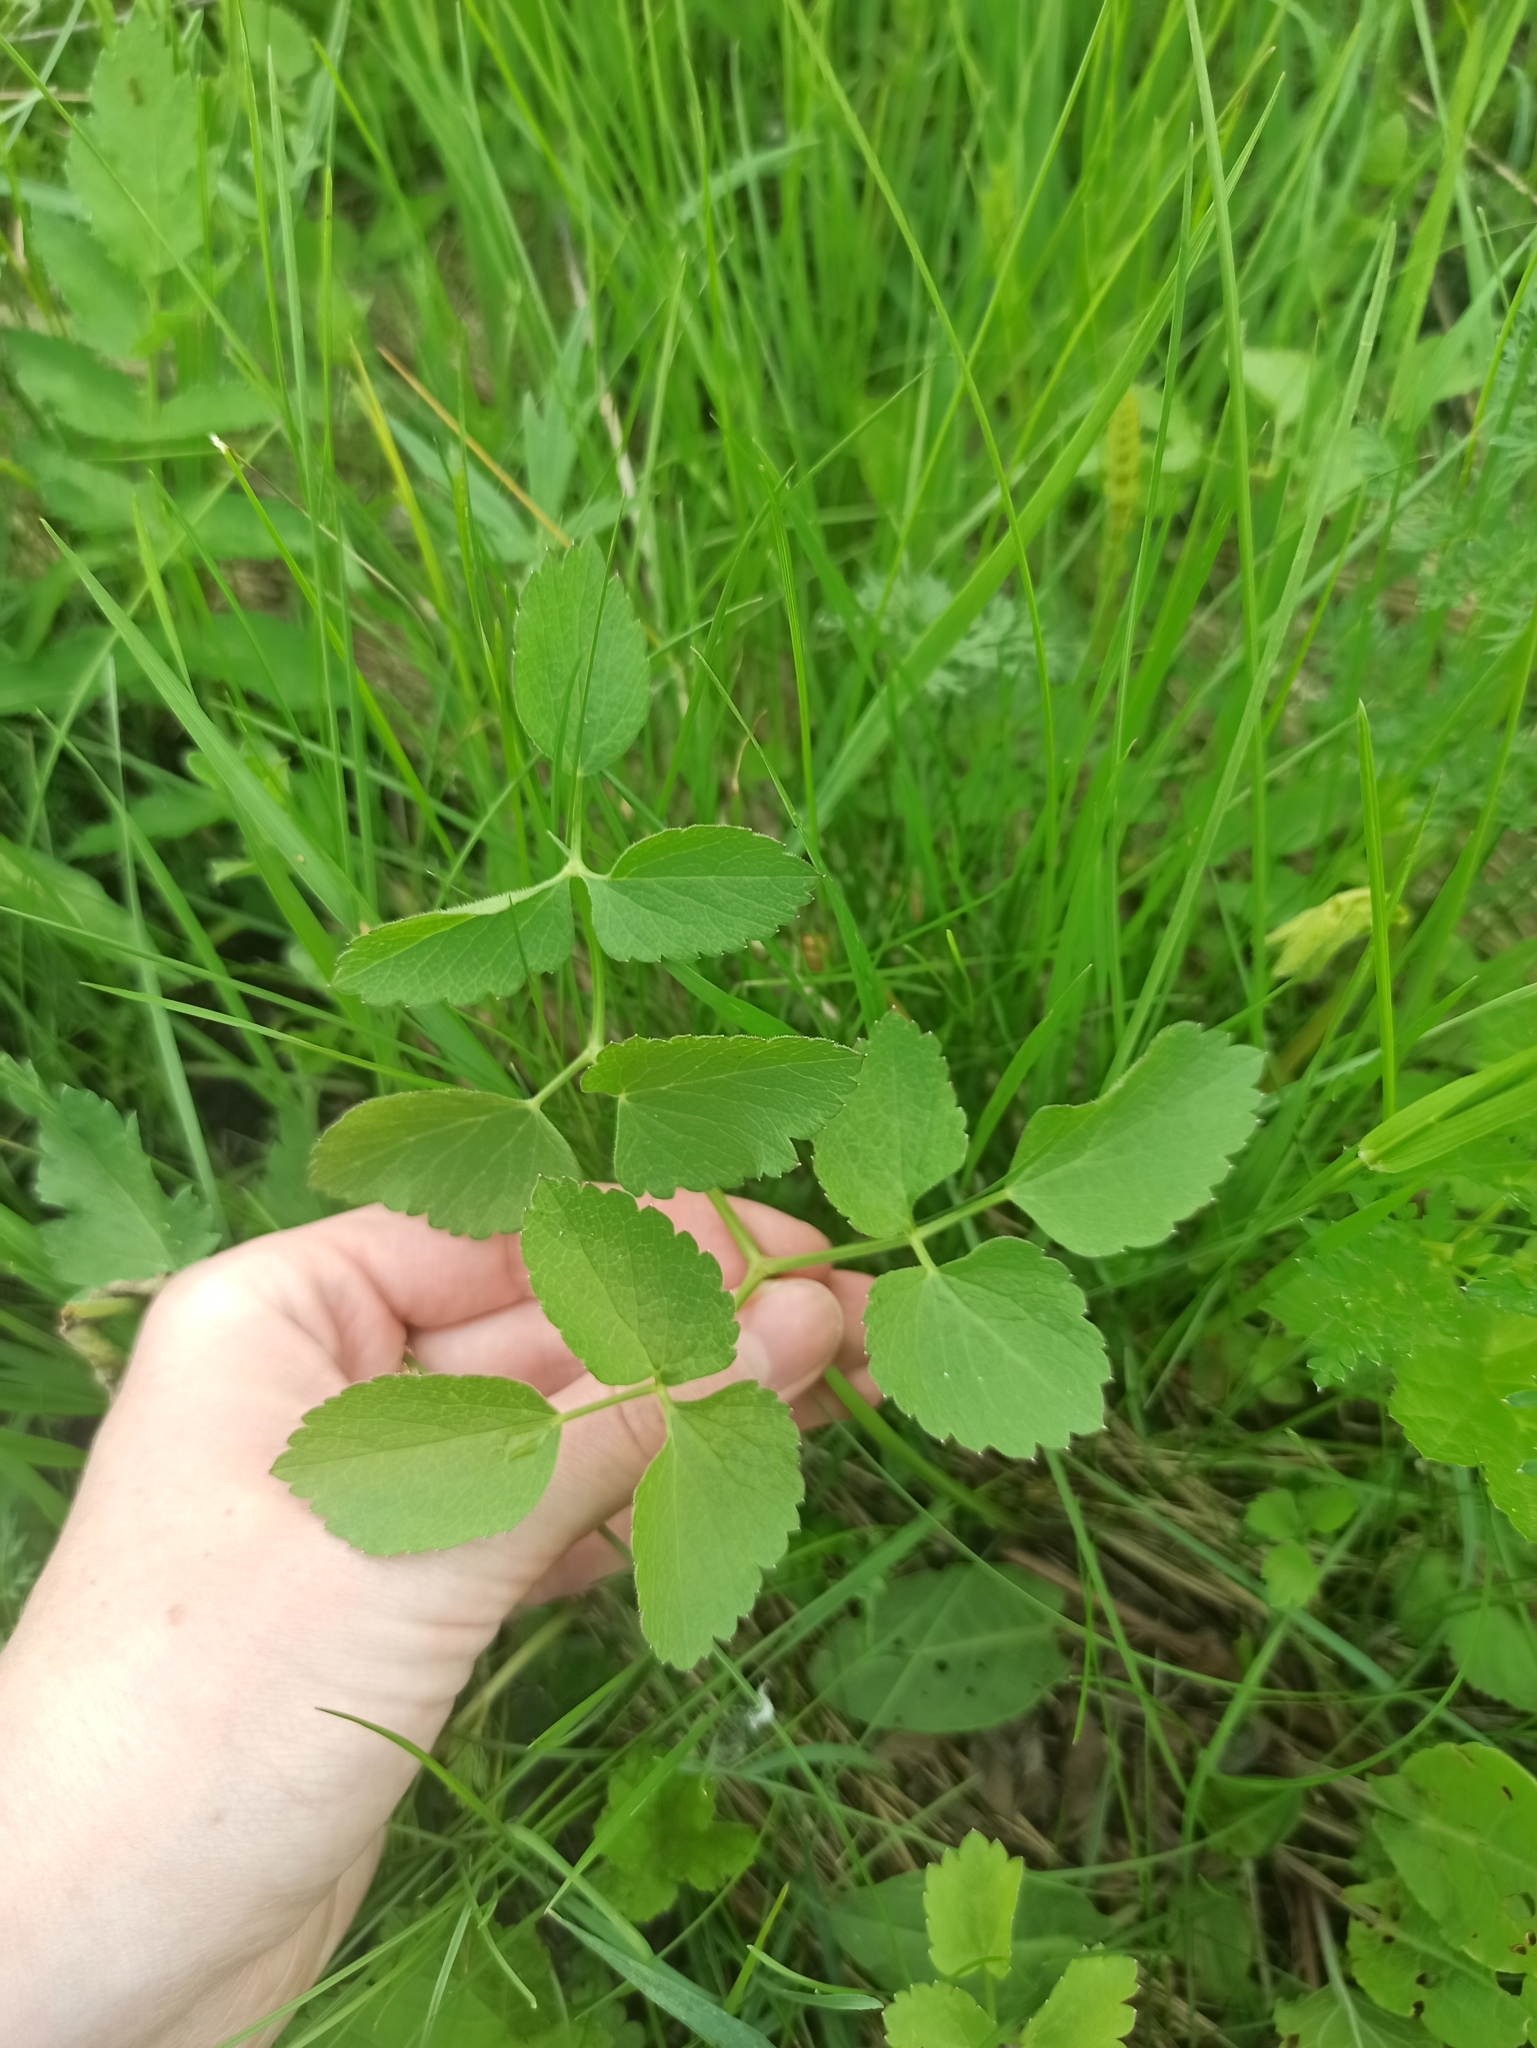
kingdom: Plantae
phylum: Tracheophyta
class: Magnoliopsida
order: Apiales
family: Apiaceae
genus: Ostericum
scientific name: Ostericum palustre
